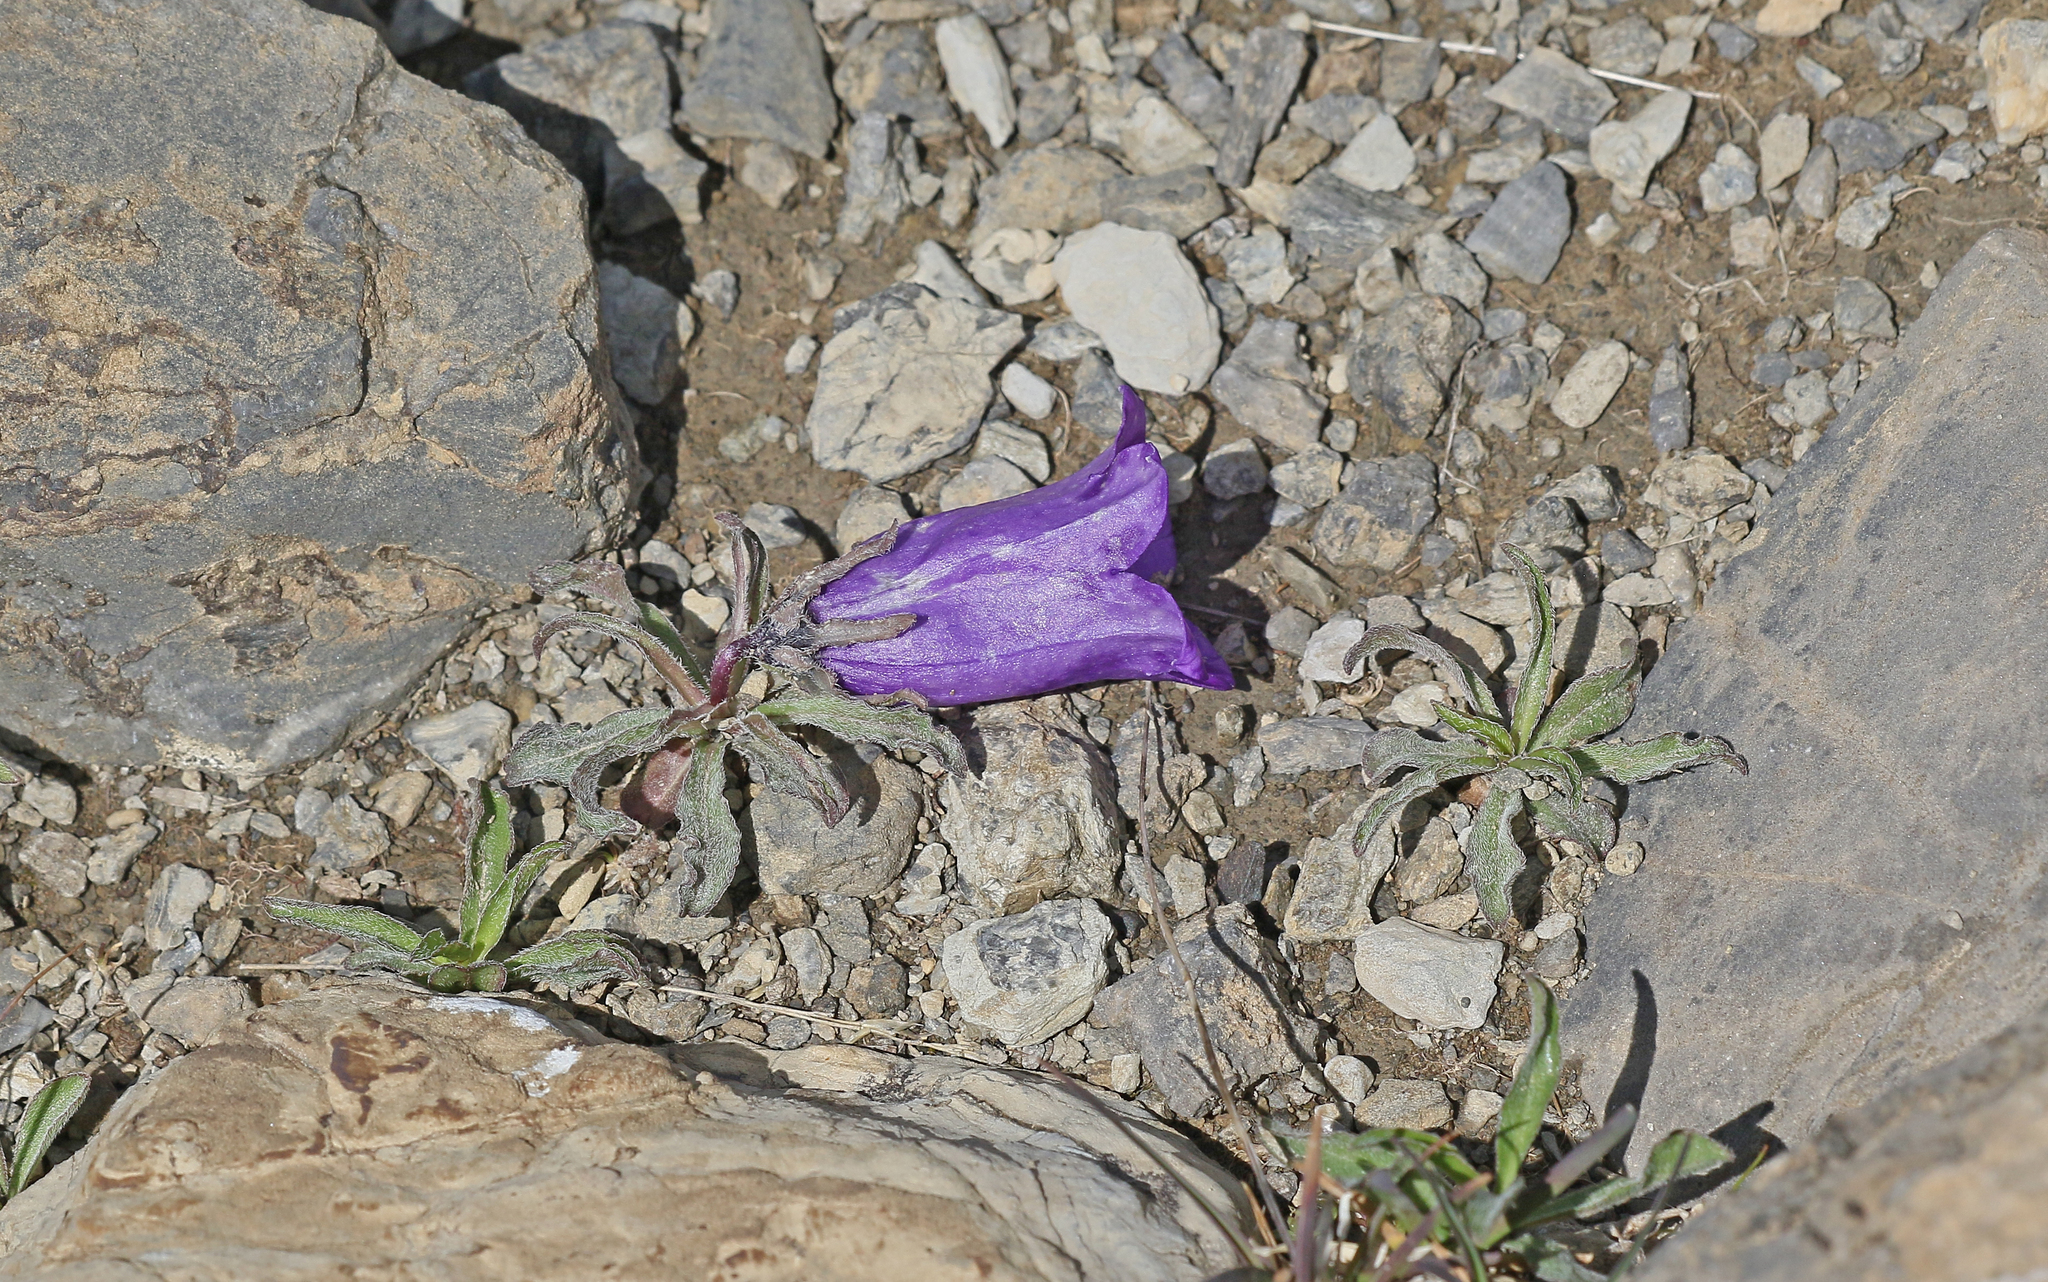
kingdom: Plantae
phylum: Tracheophyta
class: Magnoliopsida
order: Asterales
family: Campanulaceae
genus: Campanula
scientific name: Campanula alpestris
